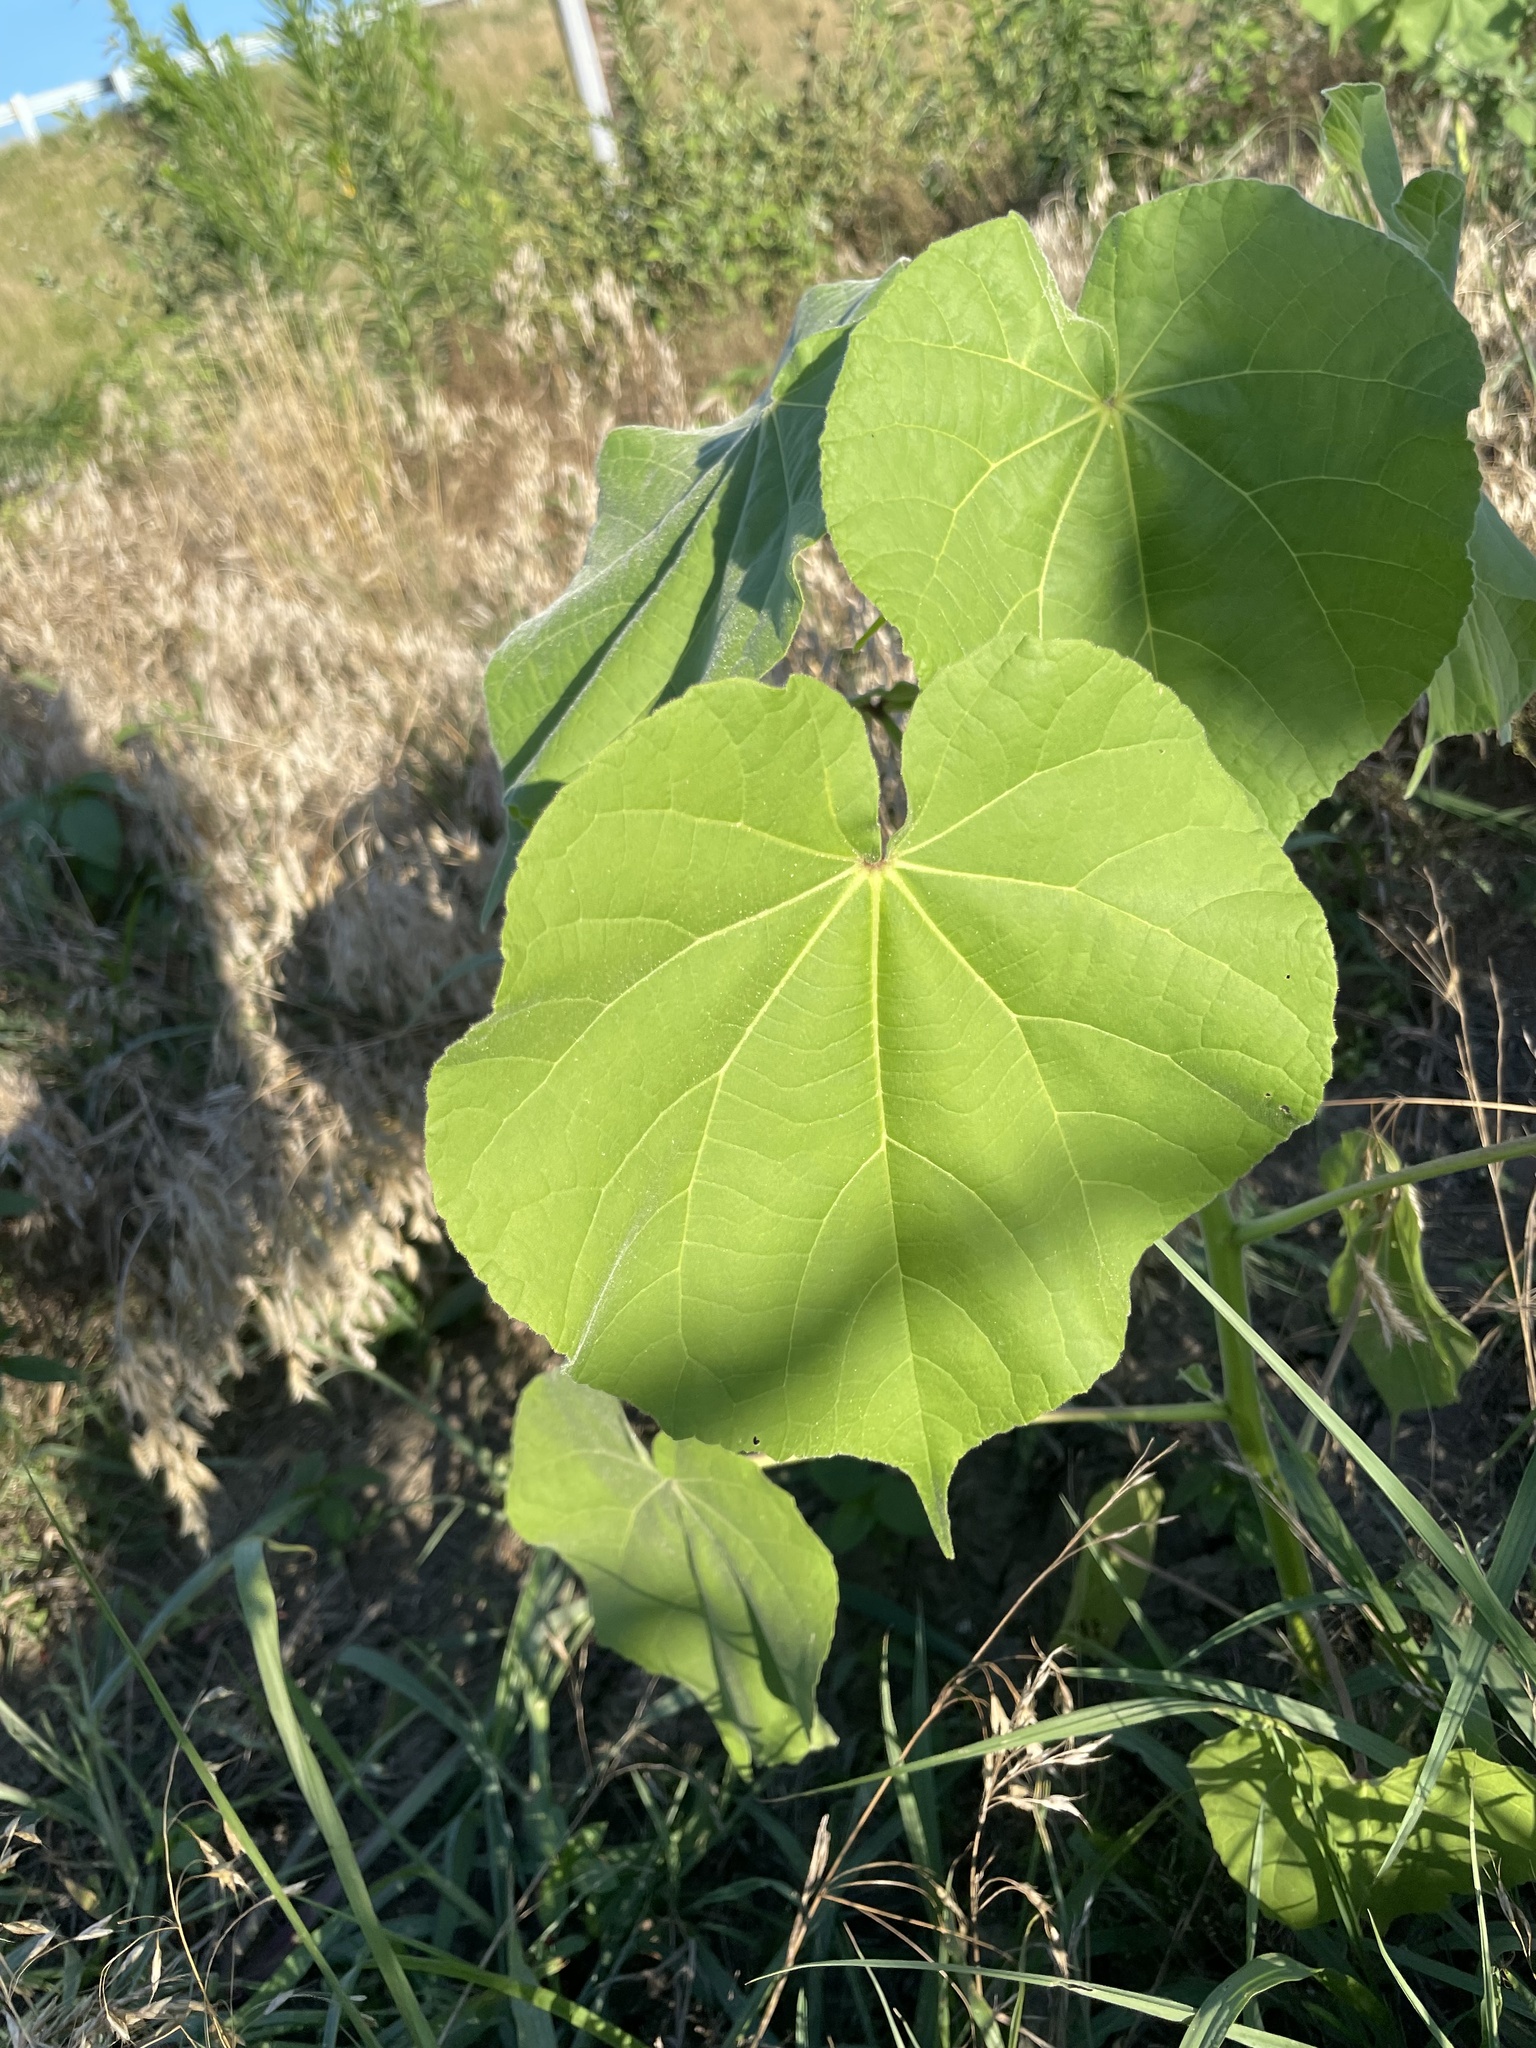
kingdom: Plantae
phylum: Tracheophyta
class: Magnoliopsida
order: Malvales
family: Malvaceae
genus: Abutilon
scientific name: Abutilon theophrasti
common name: Velvetleaf
